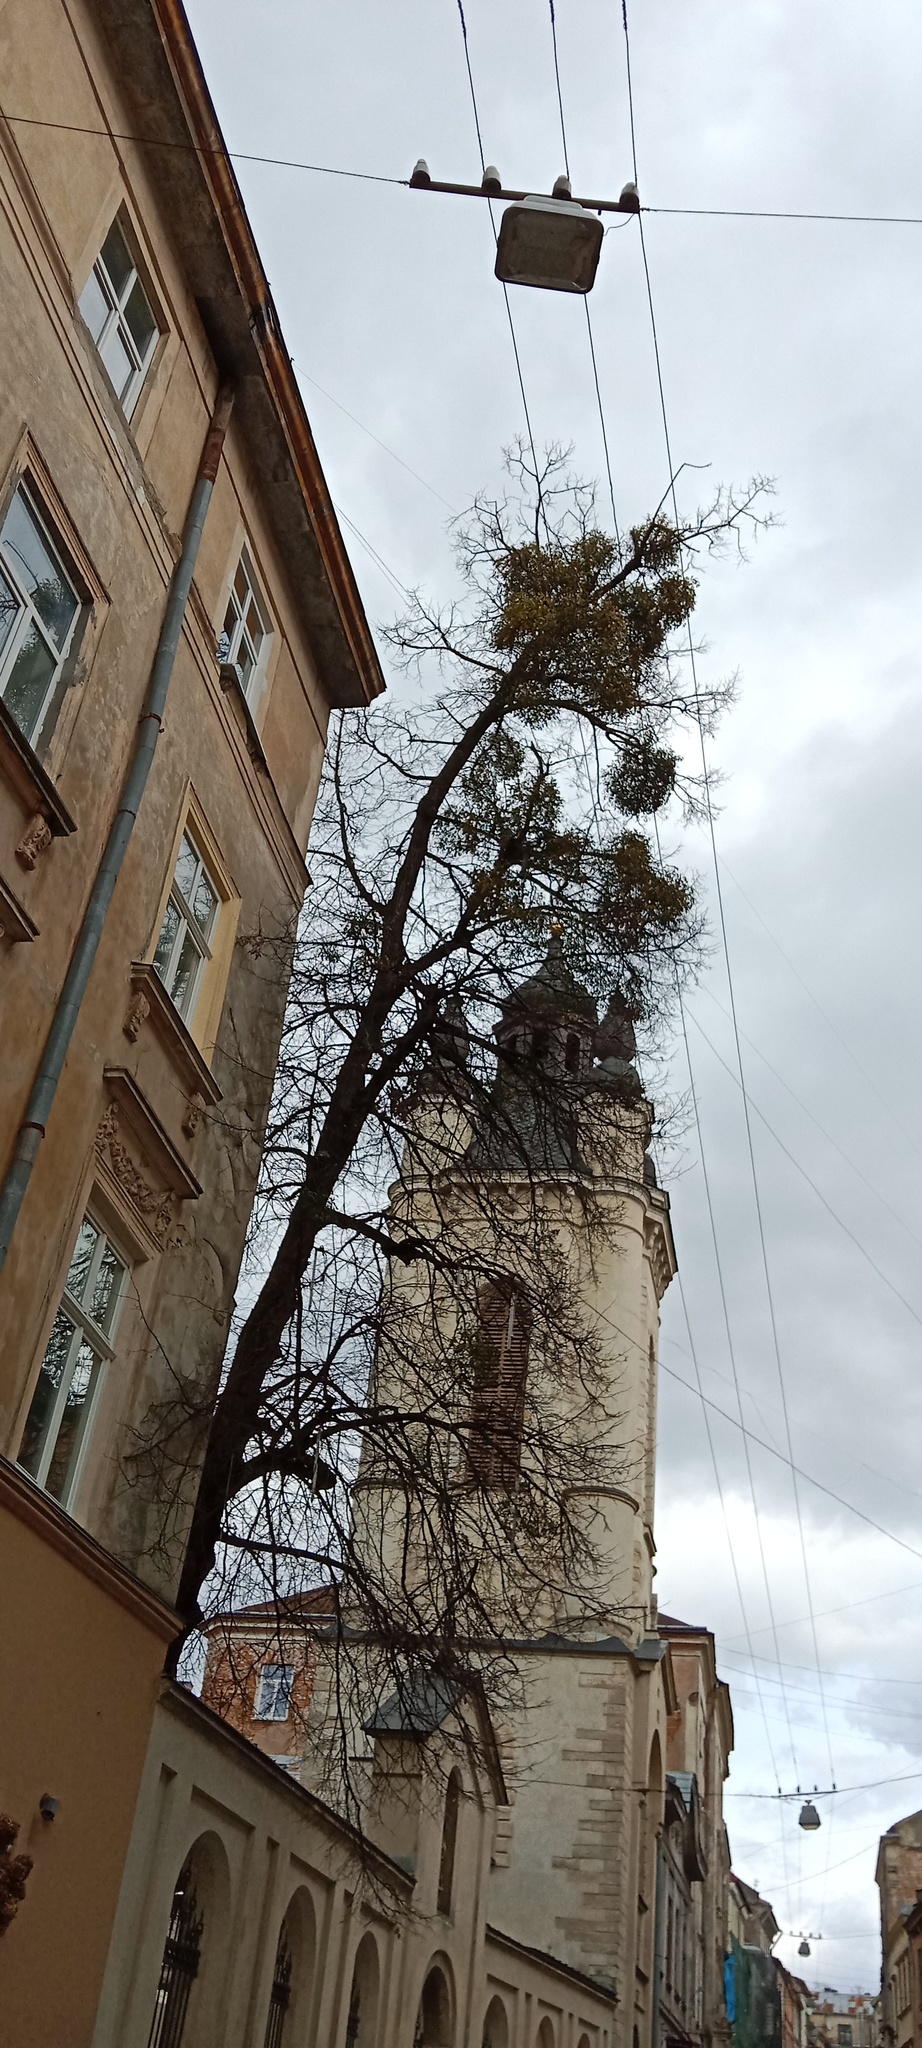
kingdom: Plantae
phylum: Tracheophyta
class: Magnoliopsida
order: Santalales
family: Viscaceae
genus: Viscum
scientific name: Viscum album
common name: Mistletoe
